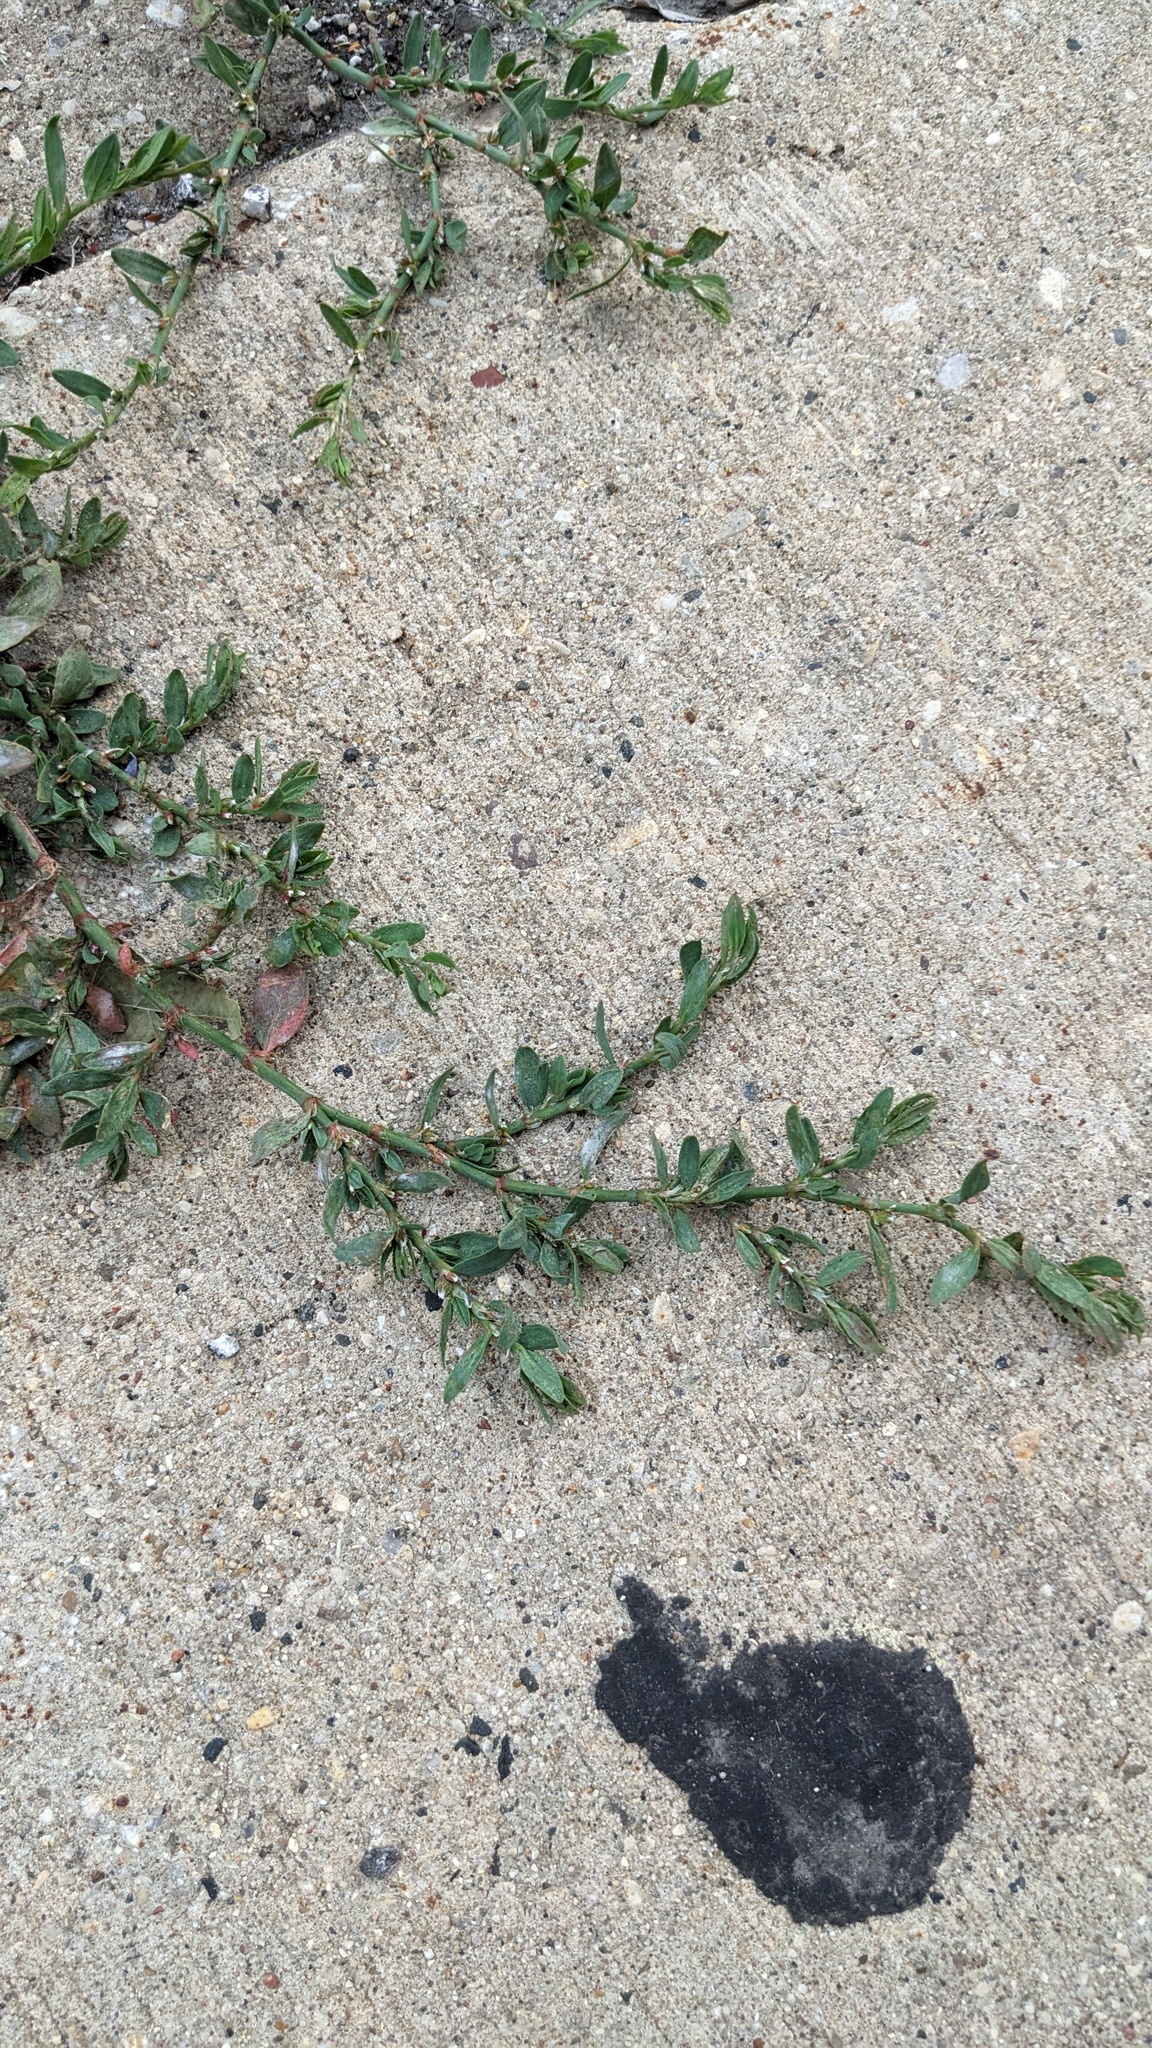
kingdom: Plantae
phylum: Tracheophyta
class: Magnoliopsida
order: Caryophyllales
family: Polygonaceae
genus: Polygonum
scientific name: Polygonum aviculare
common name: Prostrate knotweed
